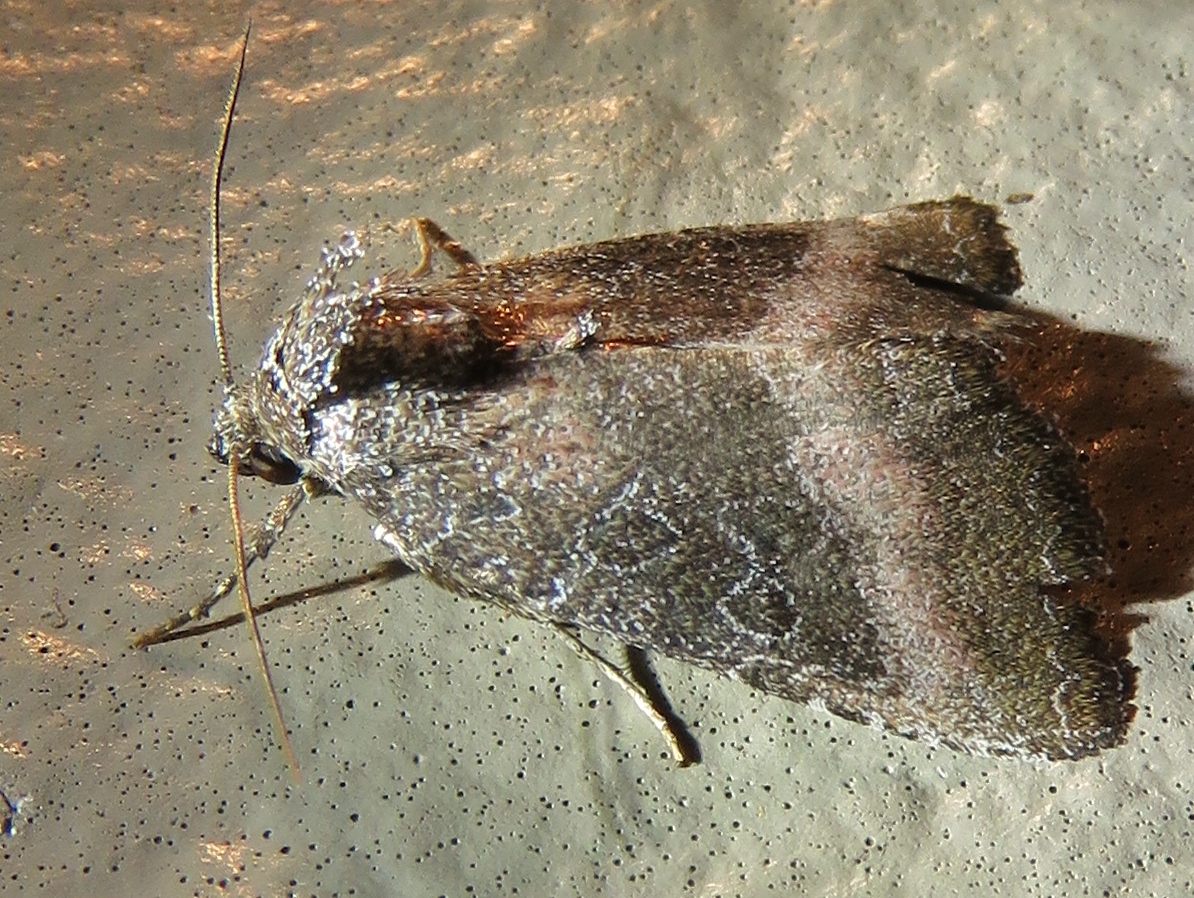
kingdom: Animalia
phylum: Arthropoda
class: Insecta
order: Lepidoptera
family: Noctuidae
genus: Ogdoconta
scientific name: Ogdoconta cinereola
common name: Common pinkband
